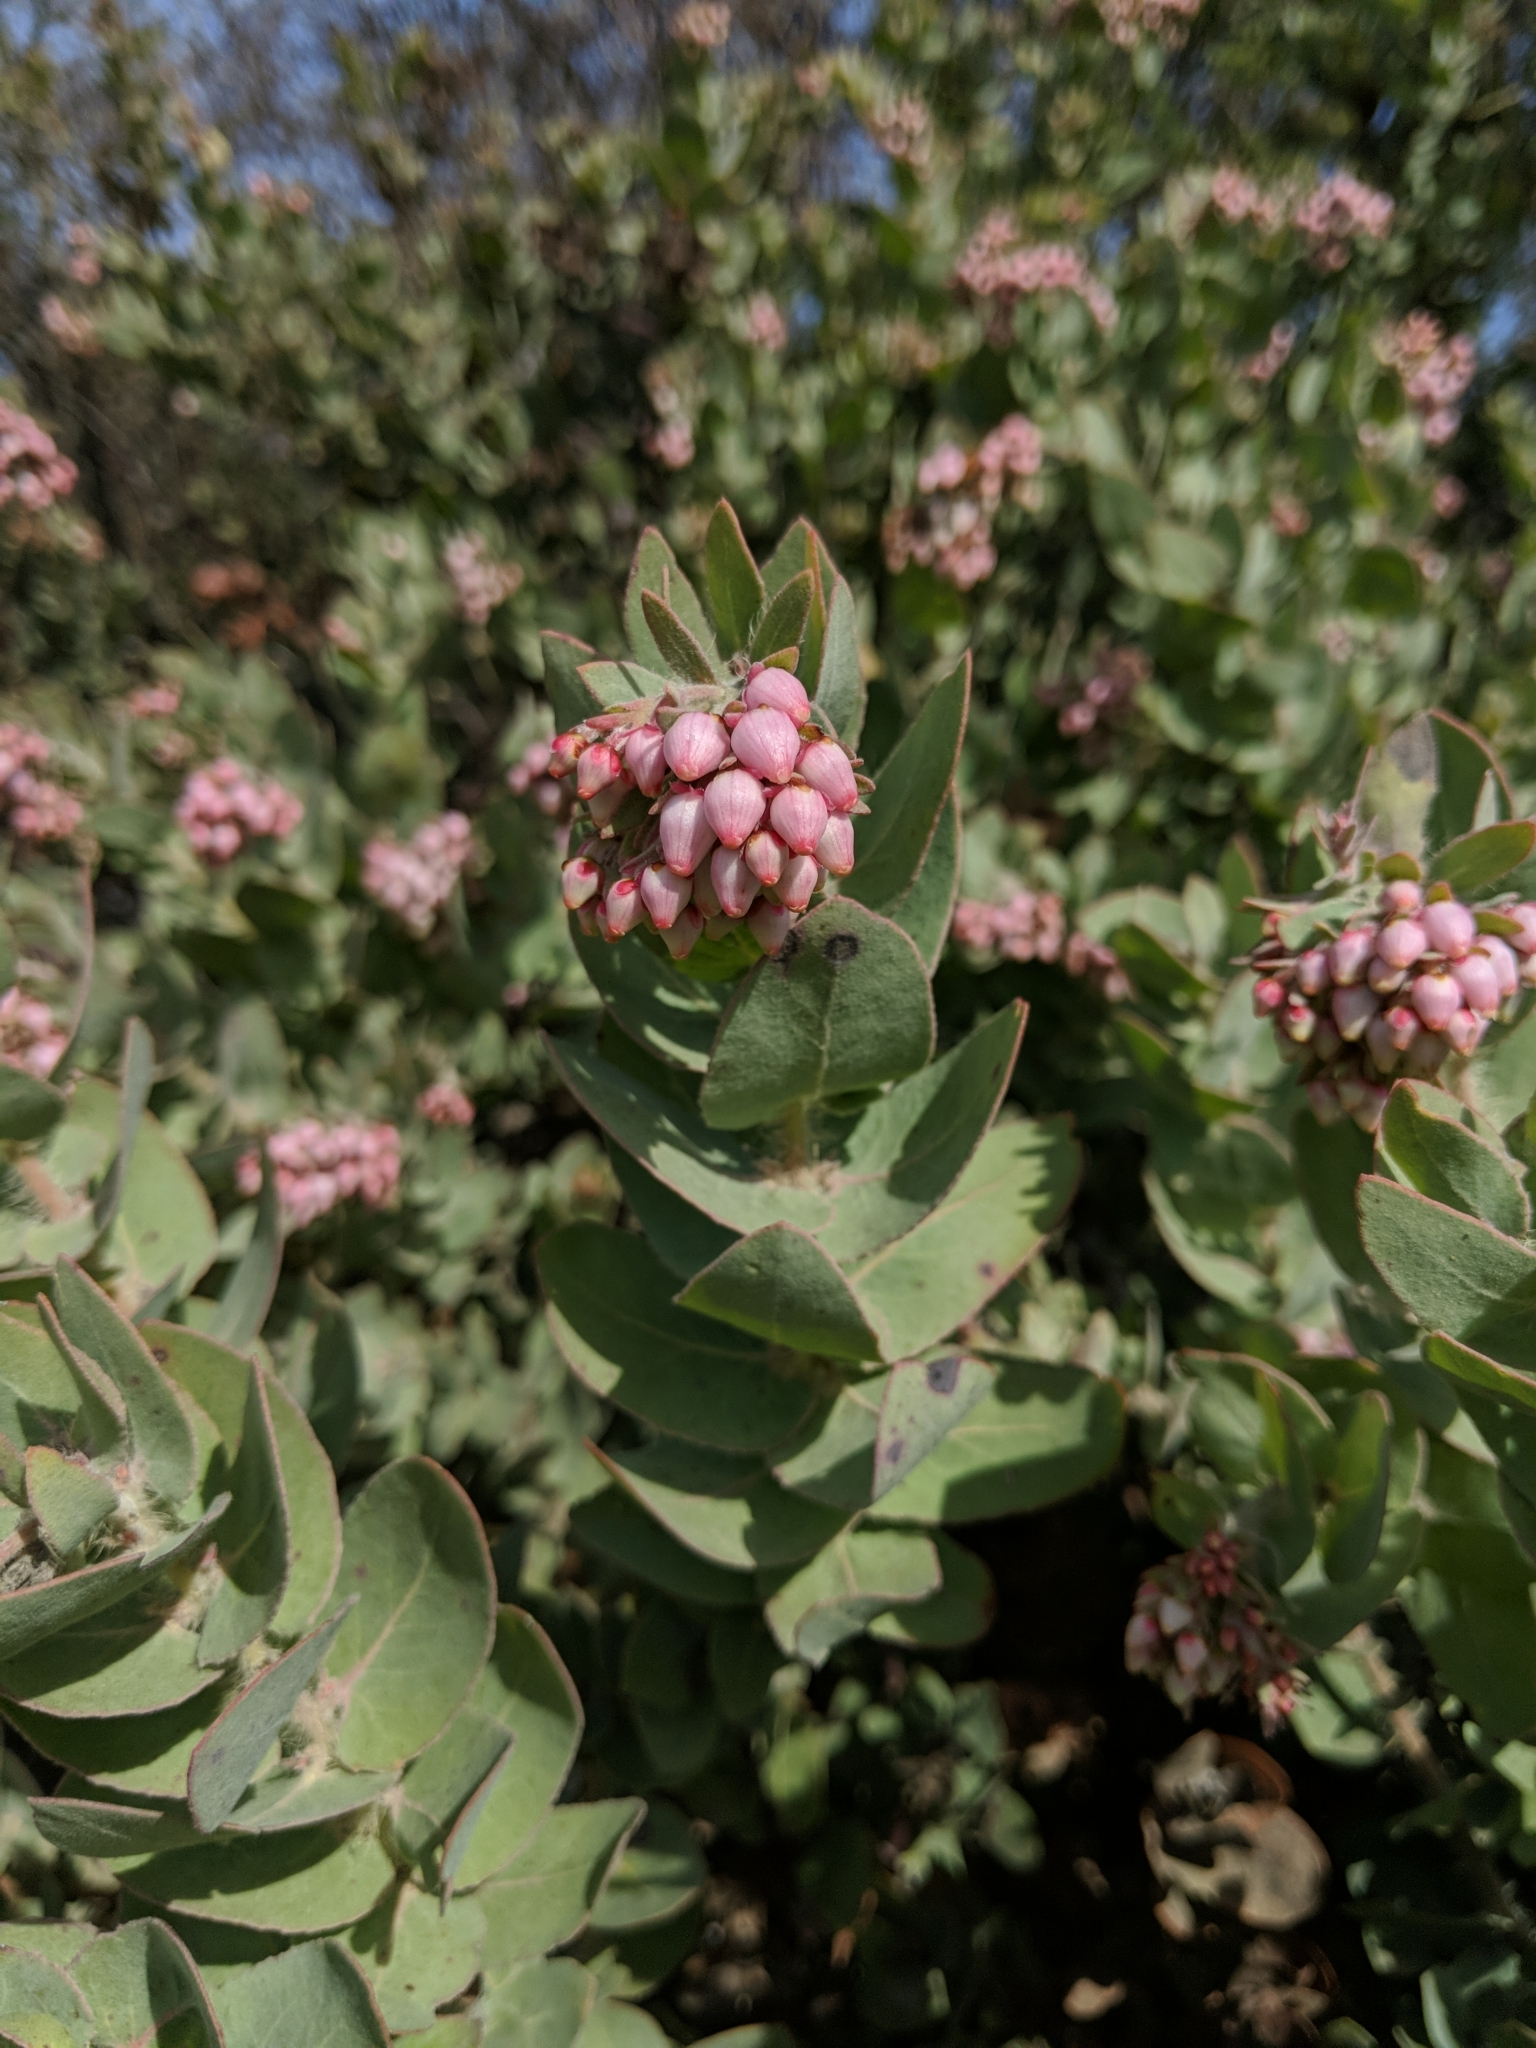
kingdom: Plantae
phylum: Tracheophyta
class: Magnoliopsida
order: Ericales
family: Ericaceae
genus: Arctostaphylos
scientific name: Arctostaphylos auriculata
